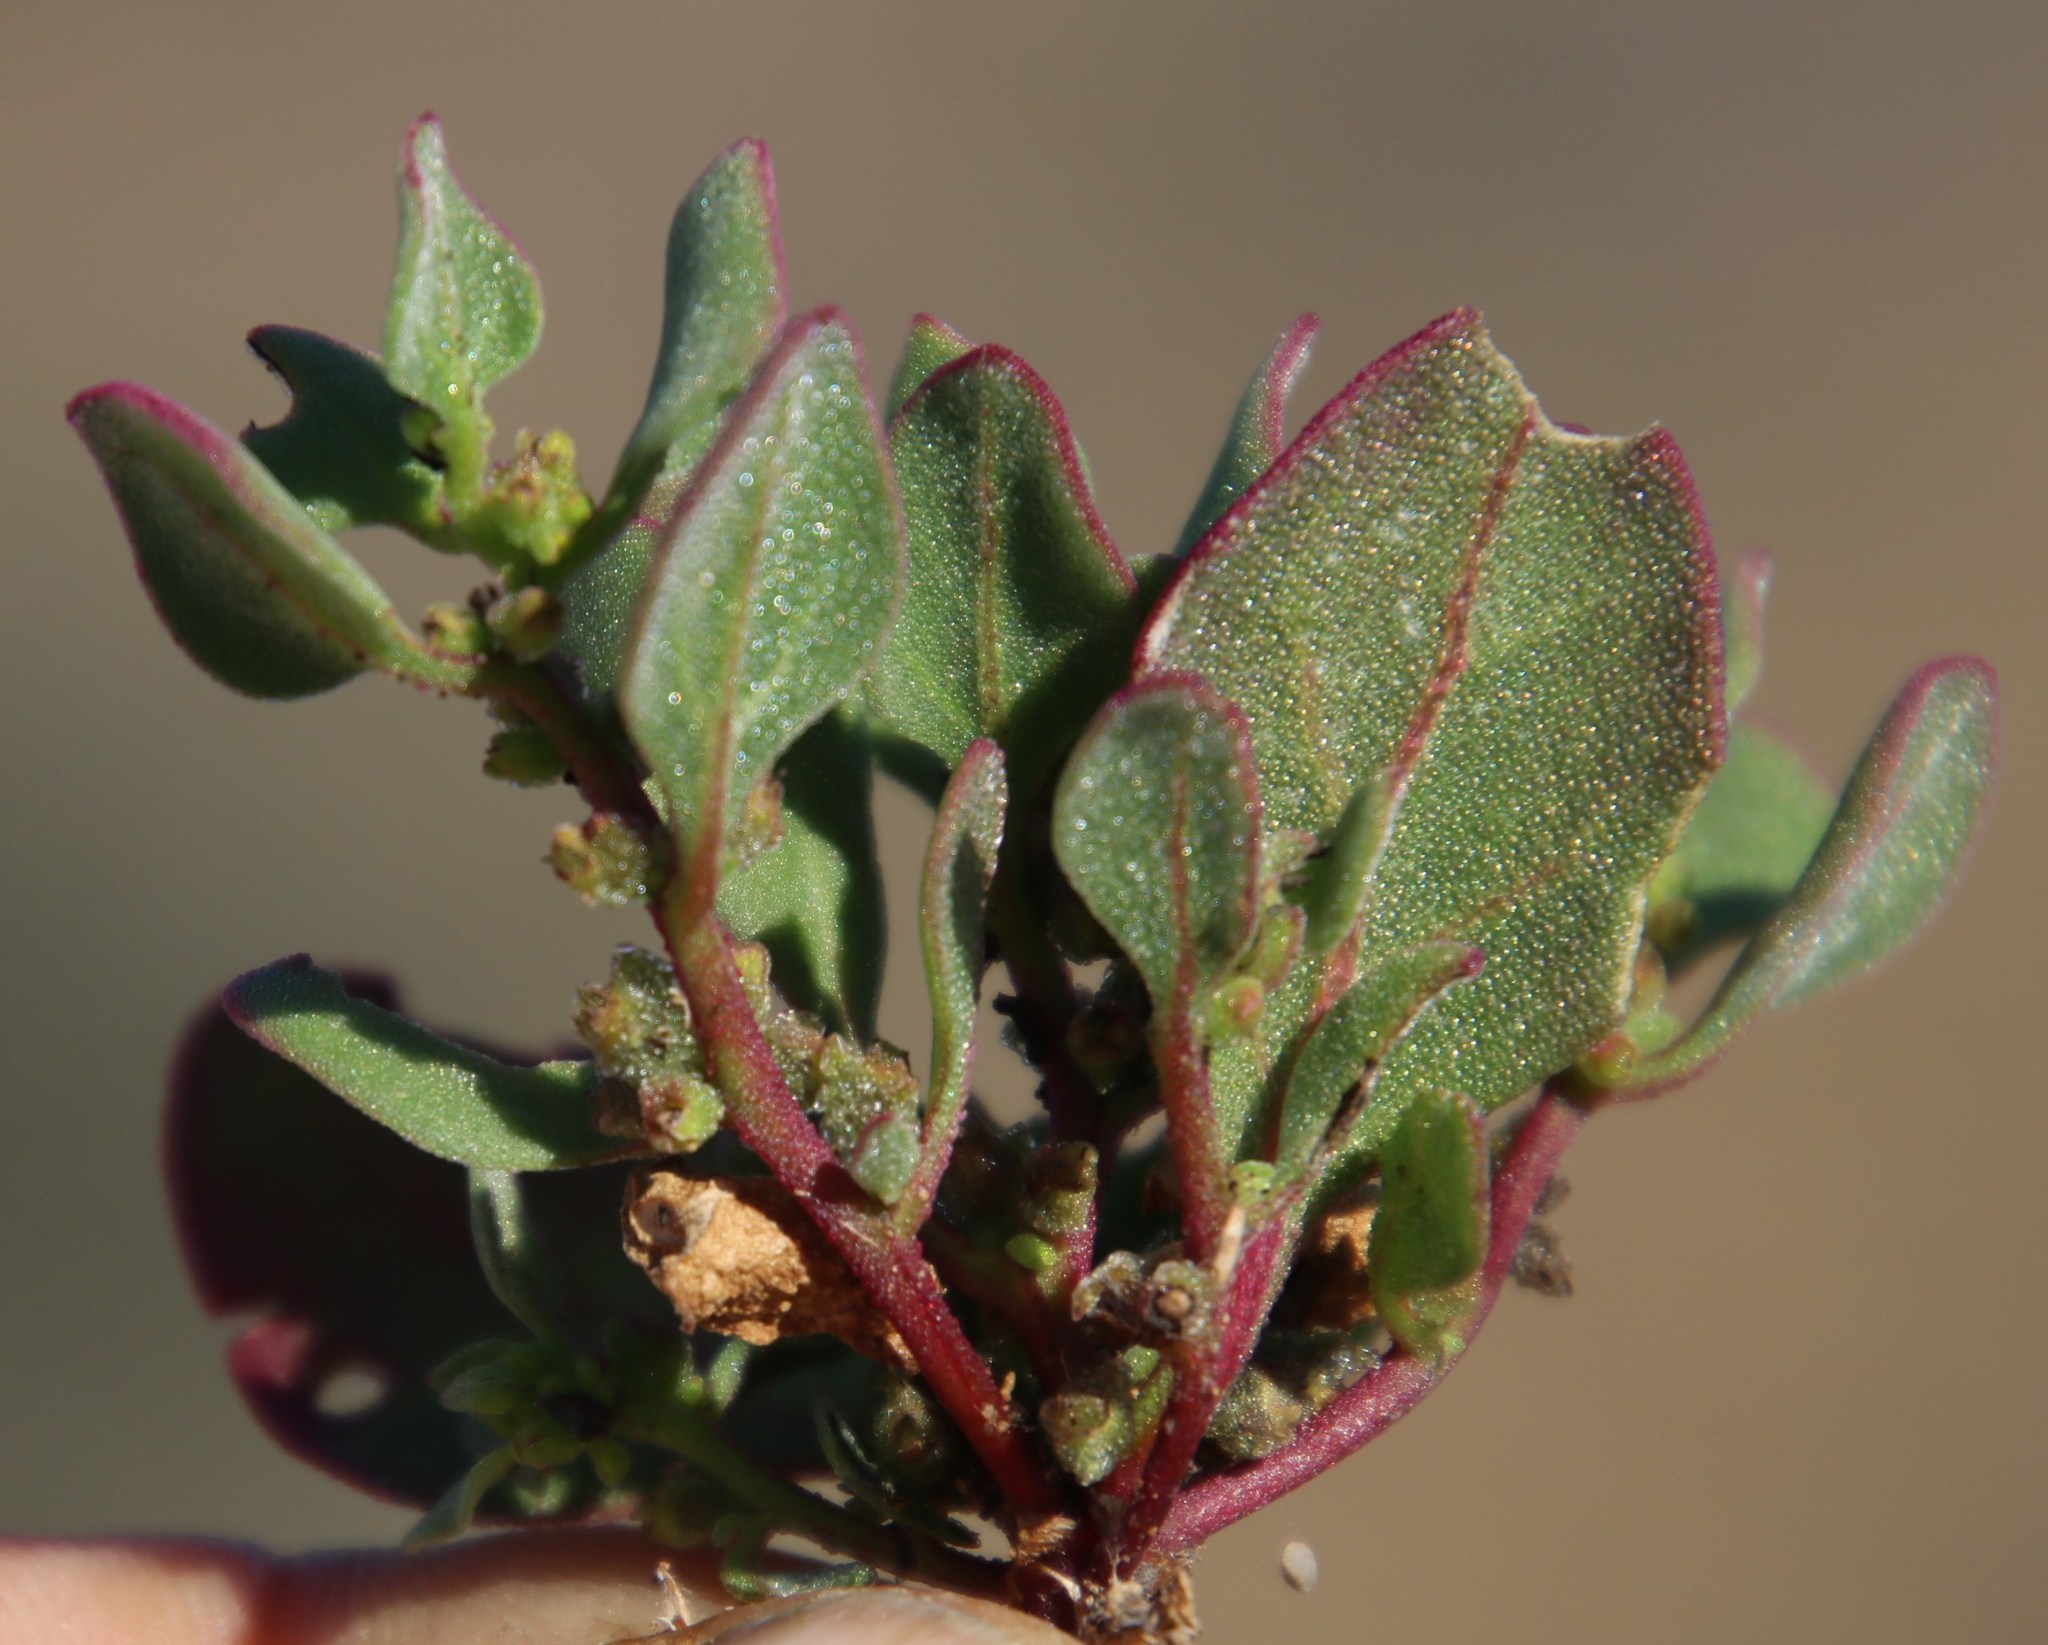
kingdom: Plantae
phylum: Tracheophyta
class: Magnoliopsida
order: Caryophyllales
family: Aizoaceae
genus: Tetragonia
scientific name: Tetragonia echinata
